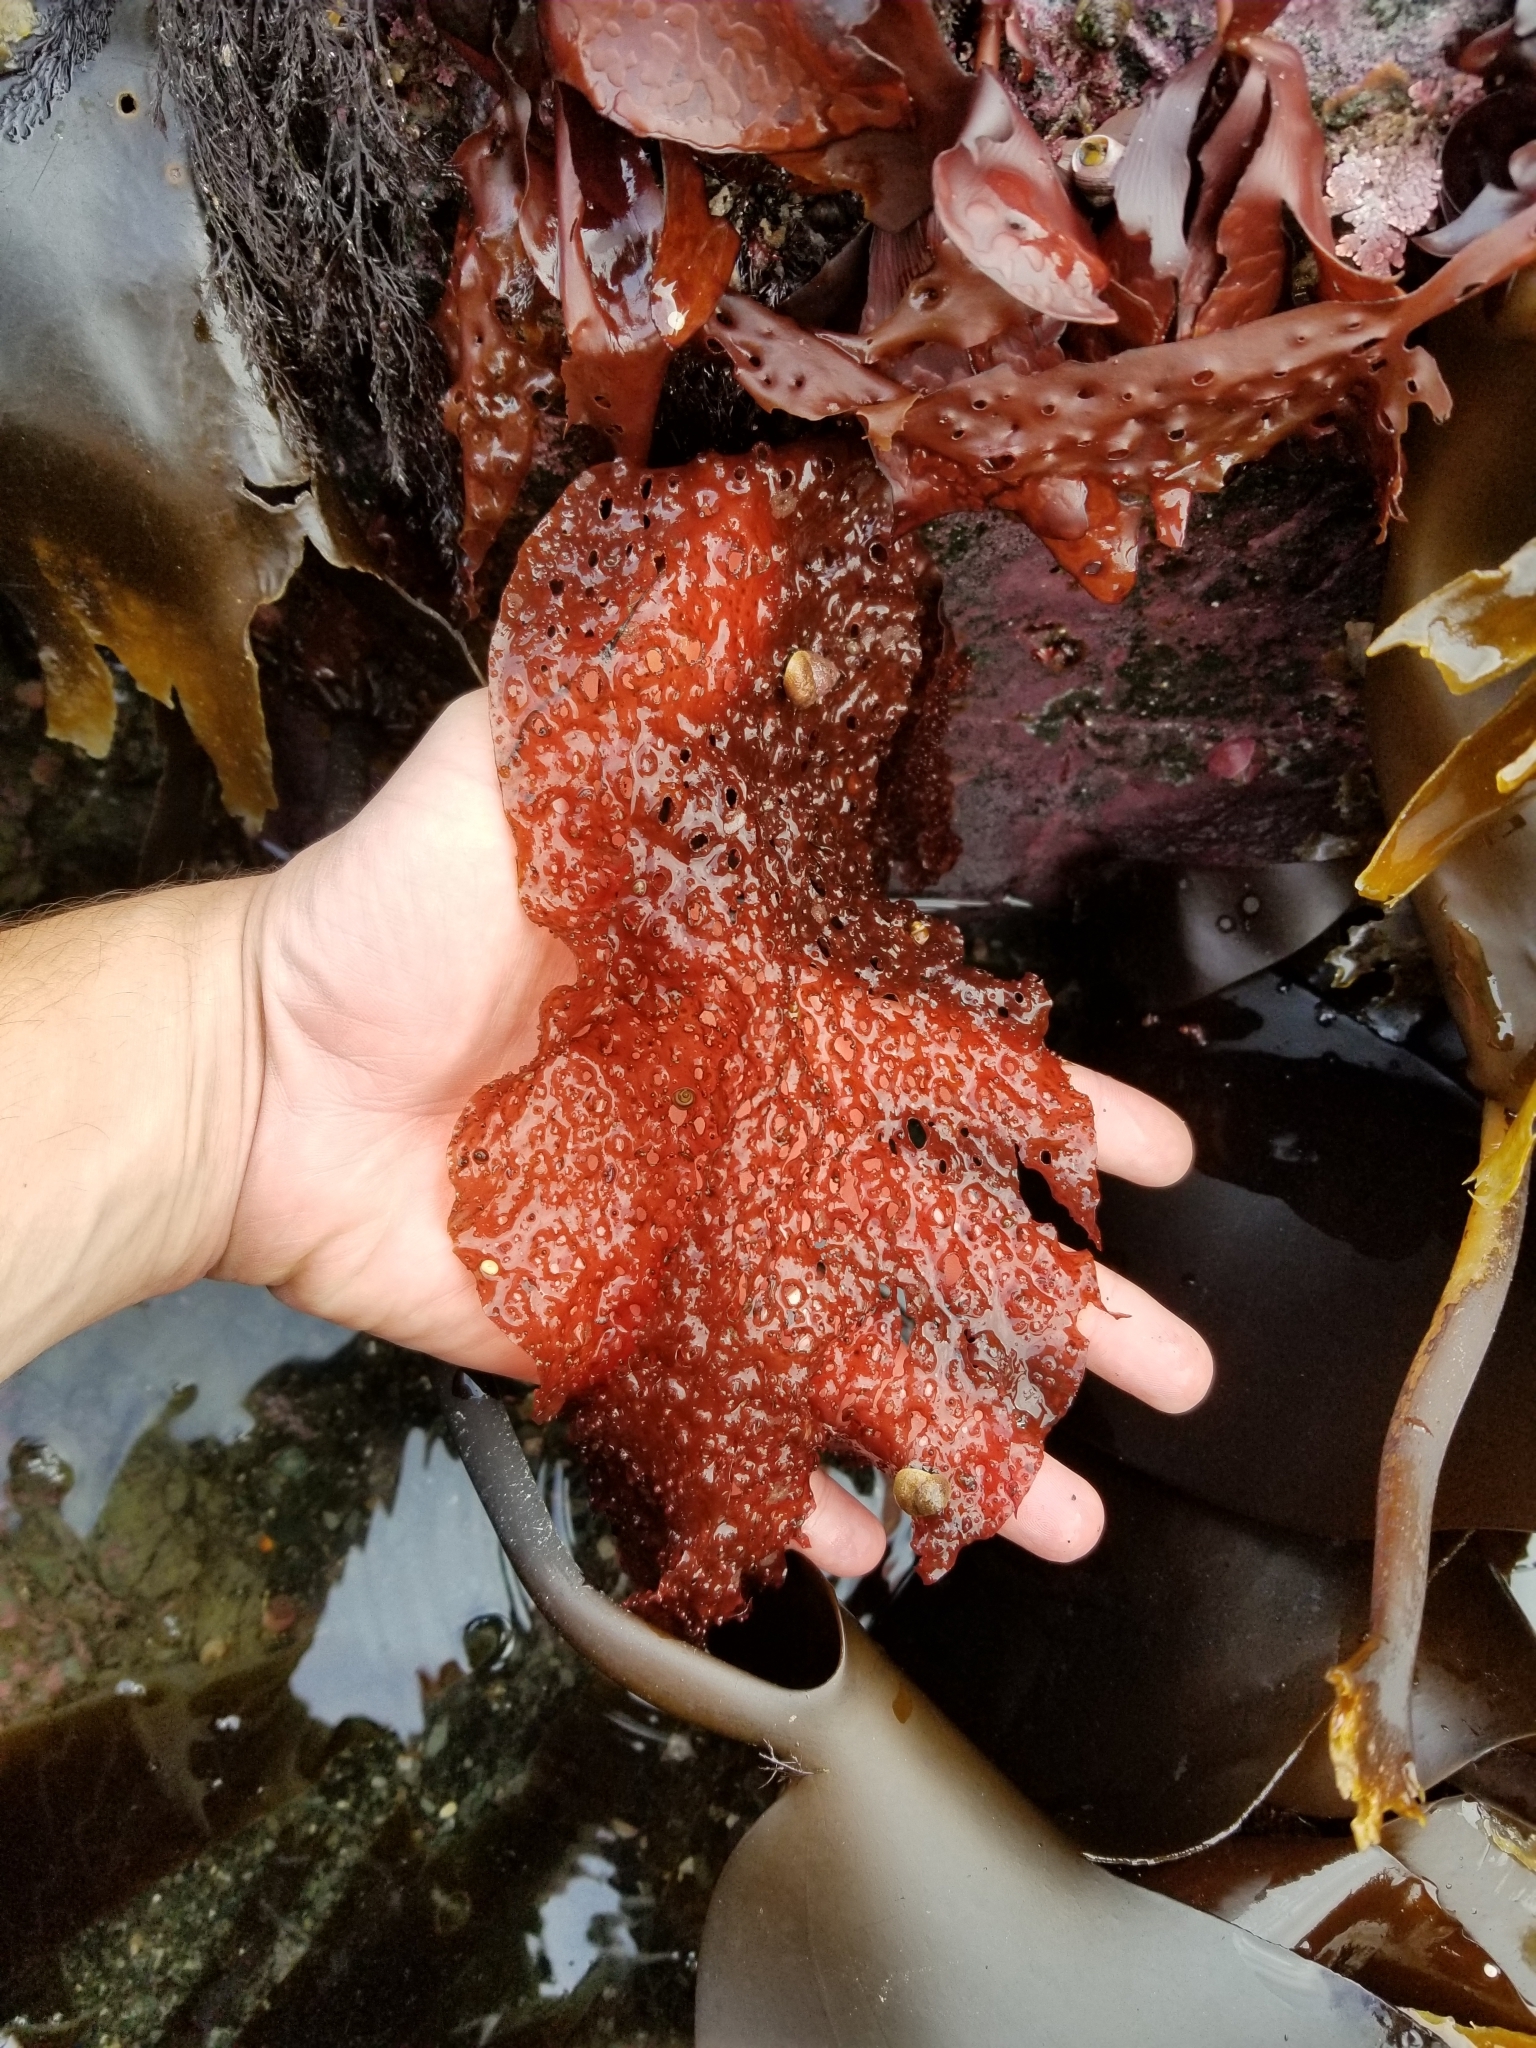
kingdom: Plantae
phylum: Rhodophyta
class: Florideophyceae
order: Rhodymeniales
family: Rhodymeniaceae
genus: Sparlingia
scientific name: Sparlingia pertusa
